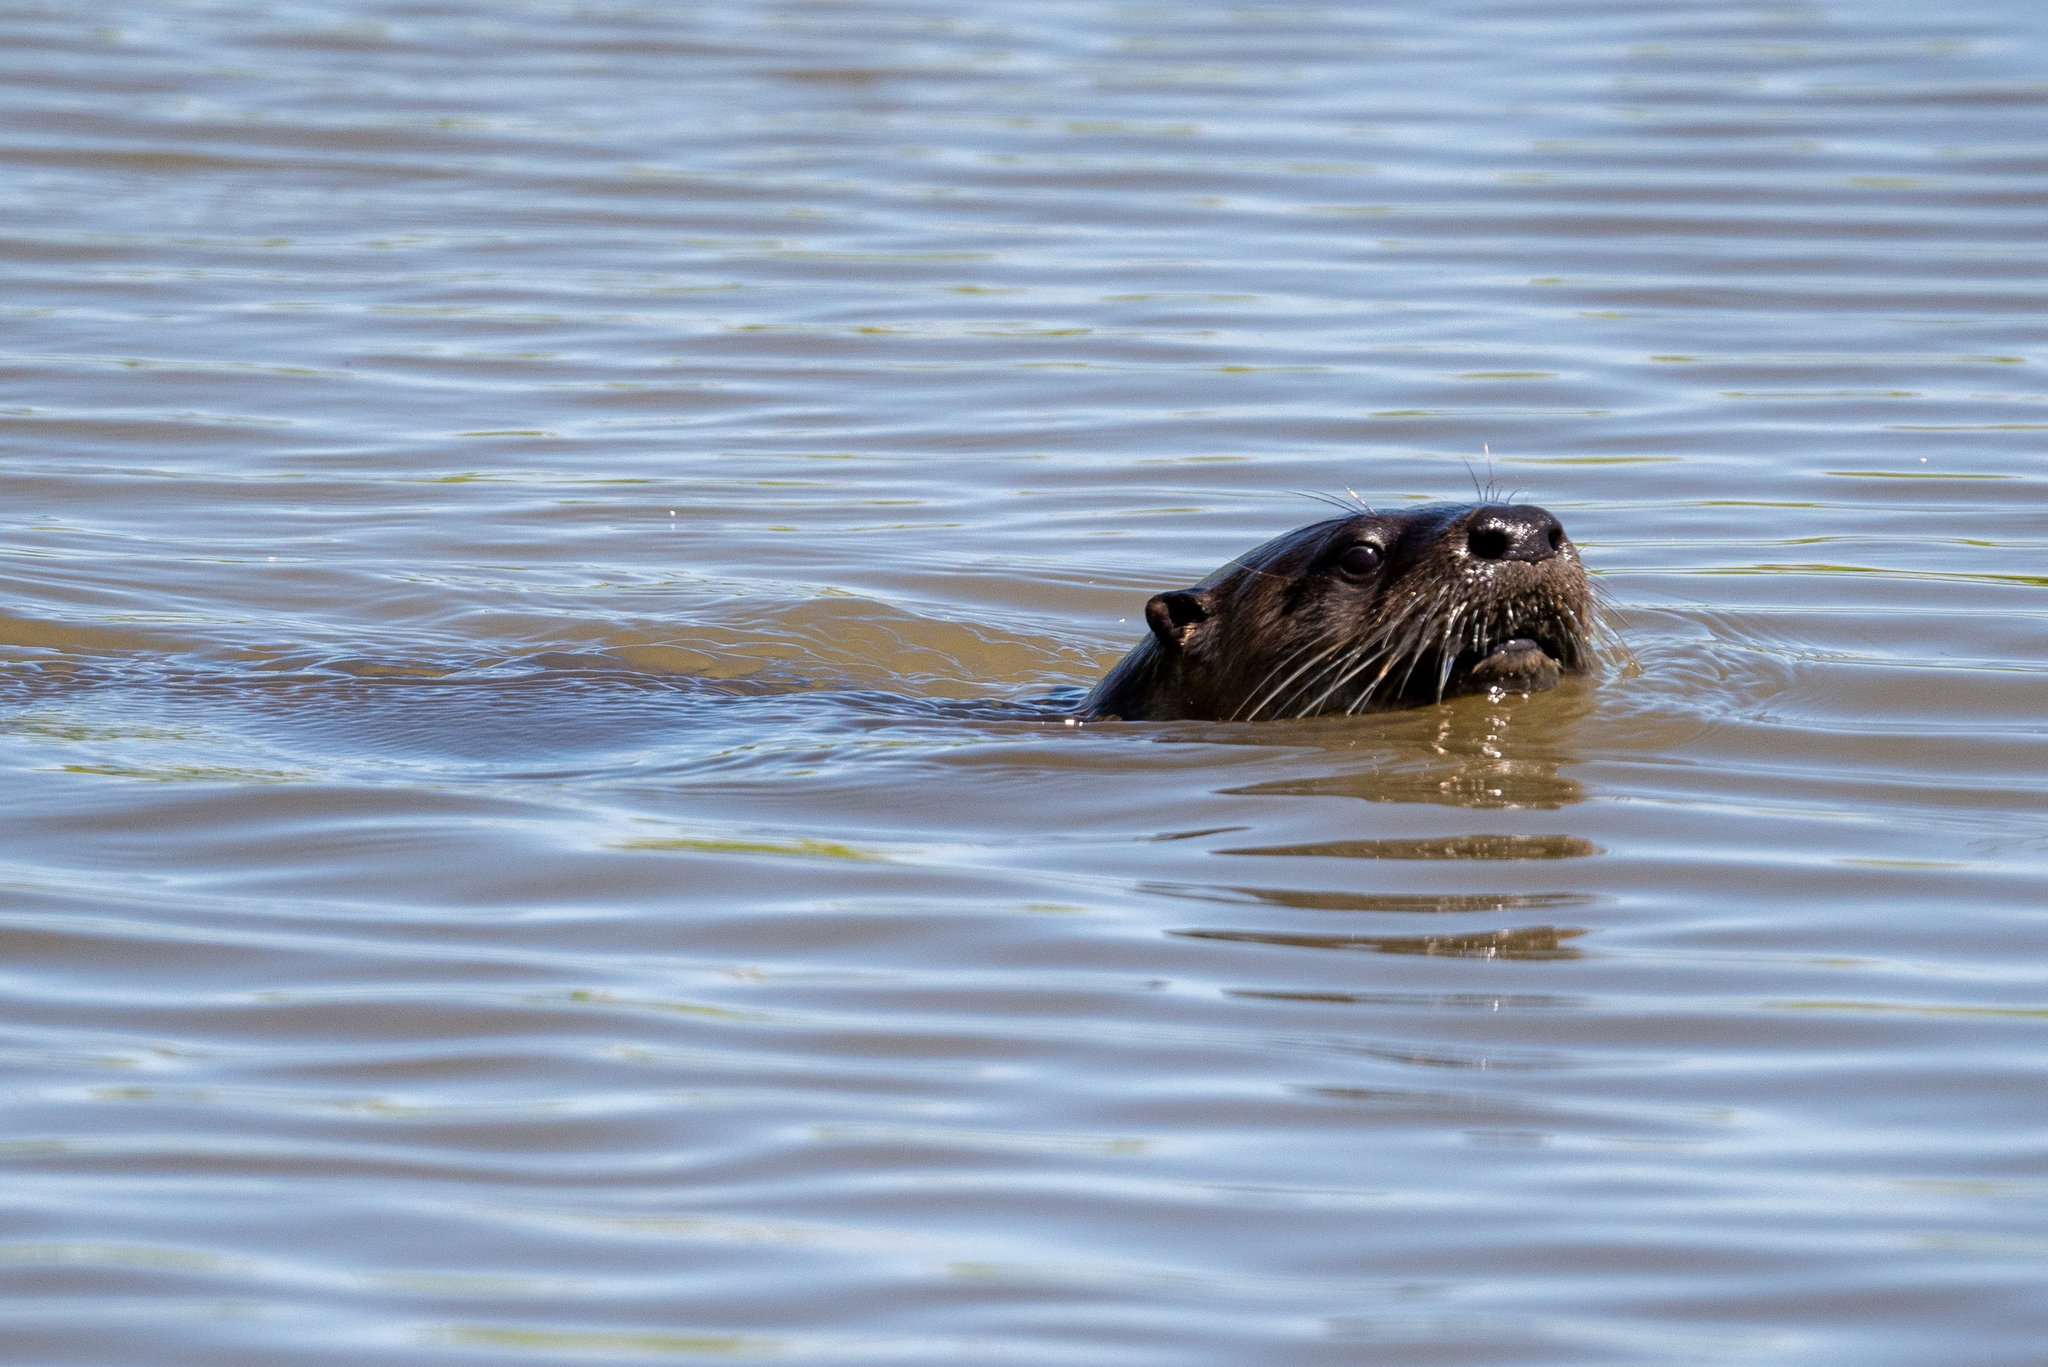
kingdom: Animalia
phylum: Chordata
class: Mammalia
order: Carnivora
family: Mustelidae
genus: Lontra
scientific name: Lontra canadensis
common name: North american river otter
